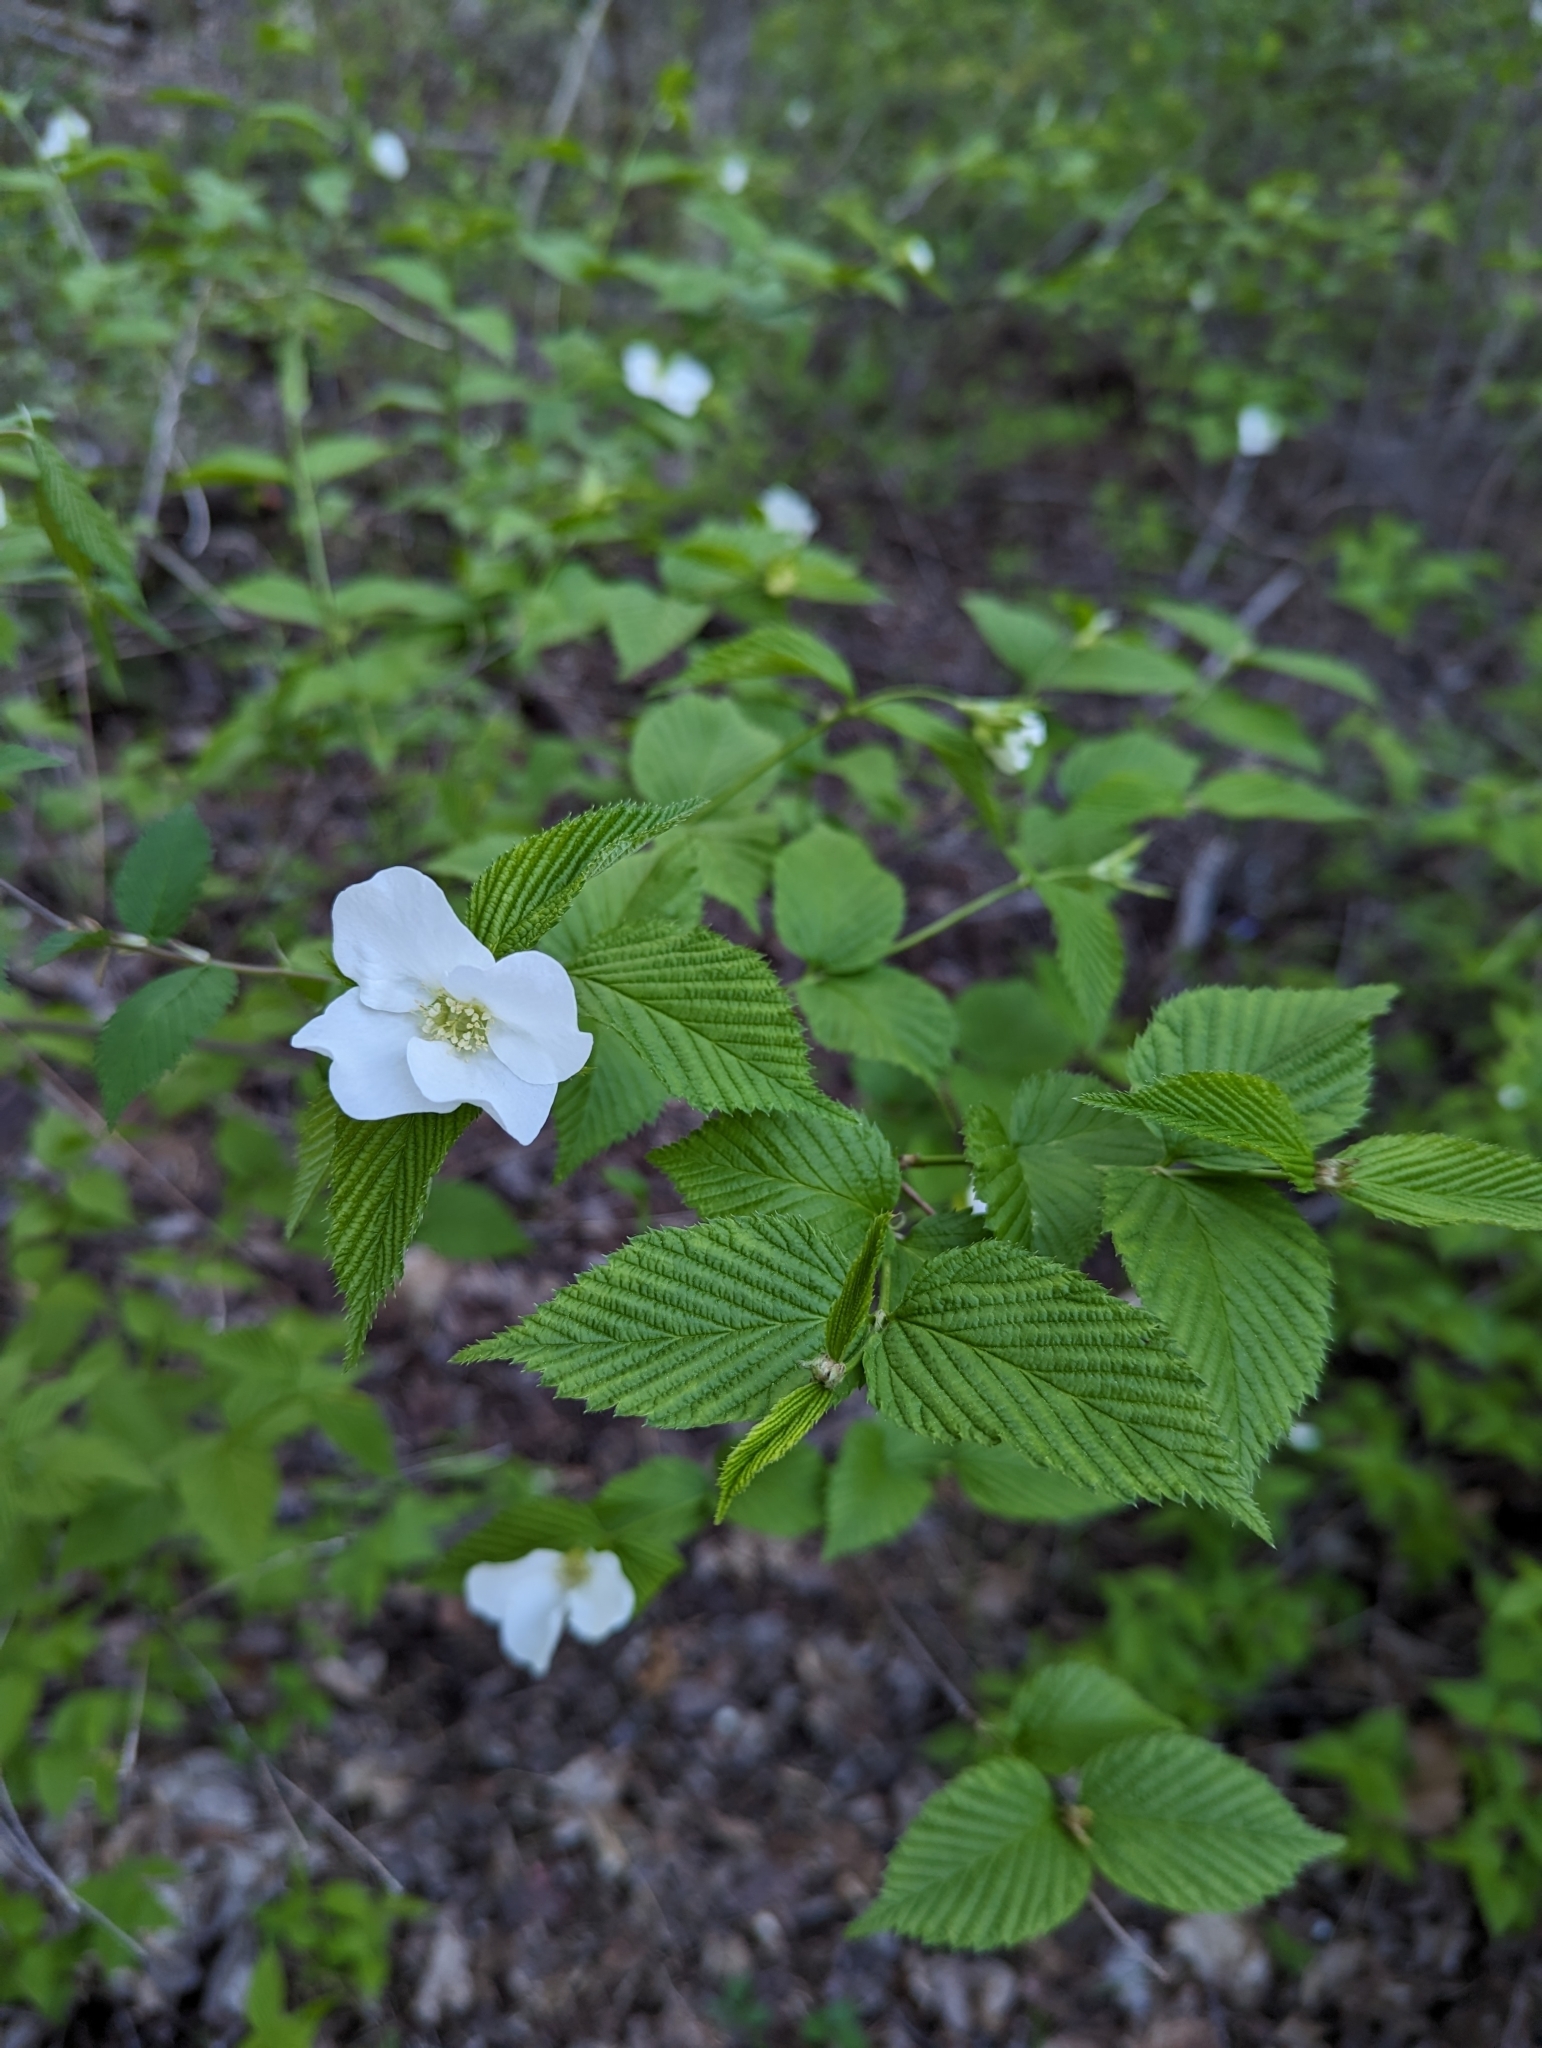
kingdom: Plantae
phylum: Tracheophyta
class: Magnoliopsida
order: Rosales
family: Rosaceae
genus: Rhodotypos
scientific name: Rhodotypos scandens
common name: Jetbead
